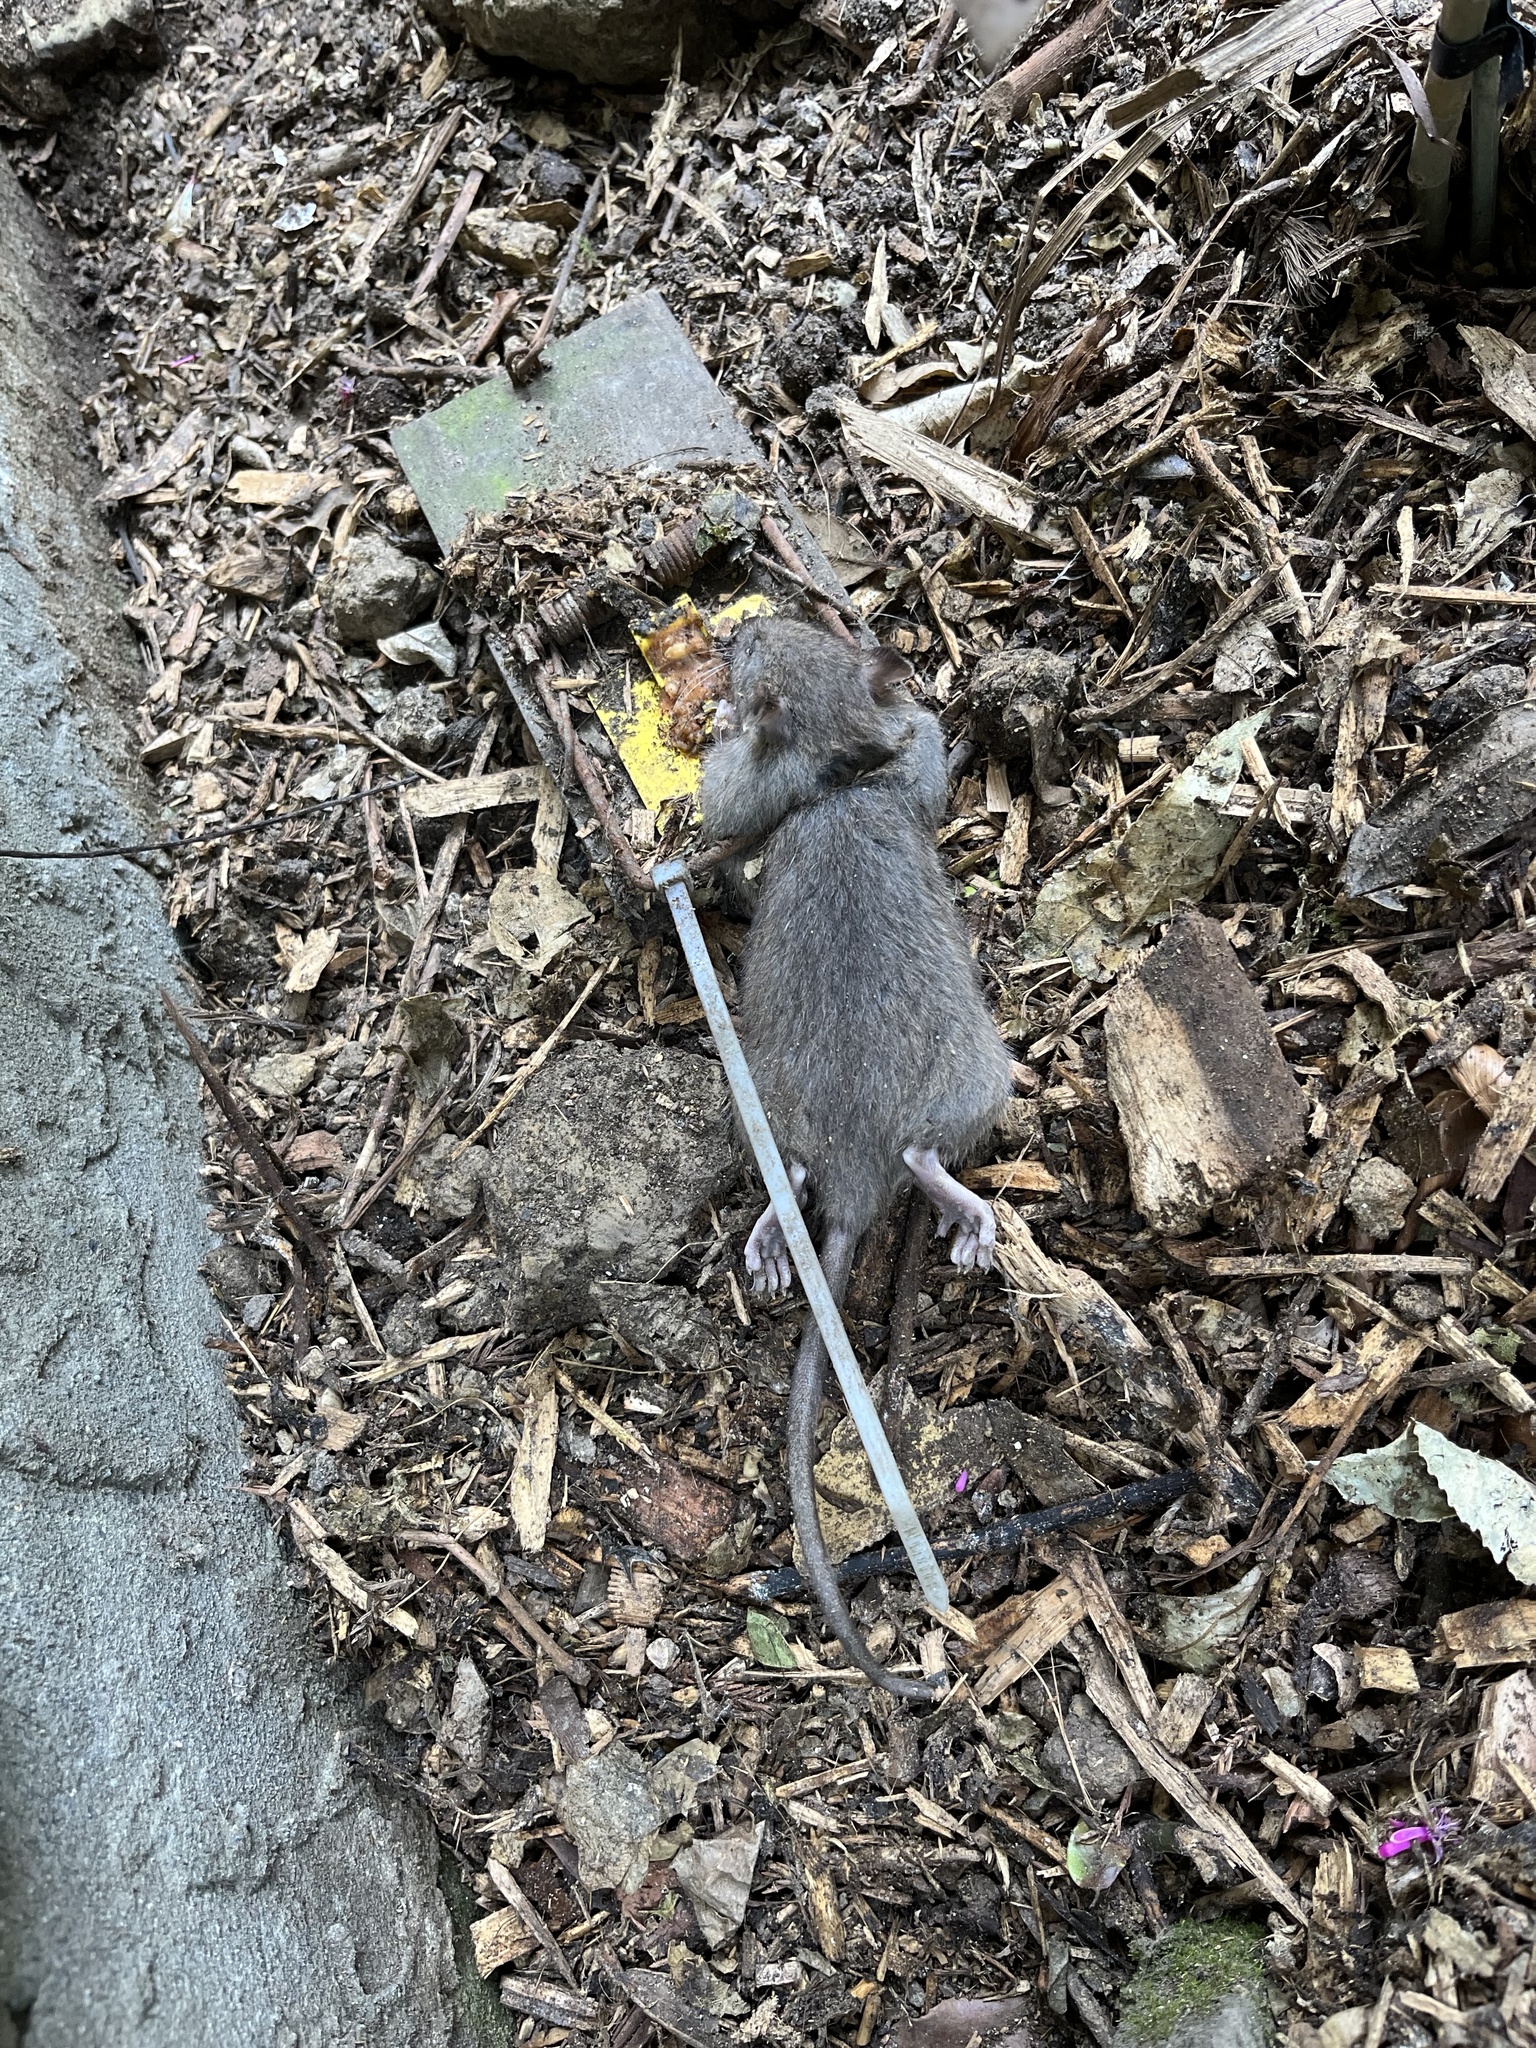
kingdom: Animalia
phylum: Chordata
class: Mammalia
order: Rodentia
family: Muridae
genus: Rattus
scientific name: Rattus norvegicus
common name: Brown rat
